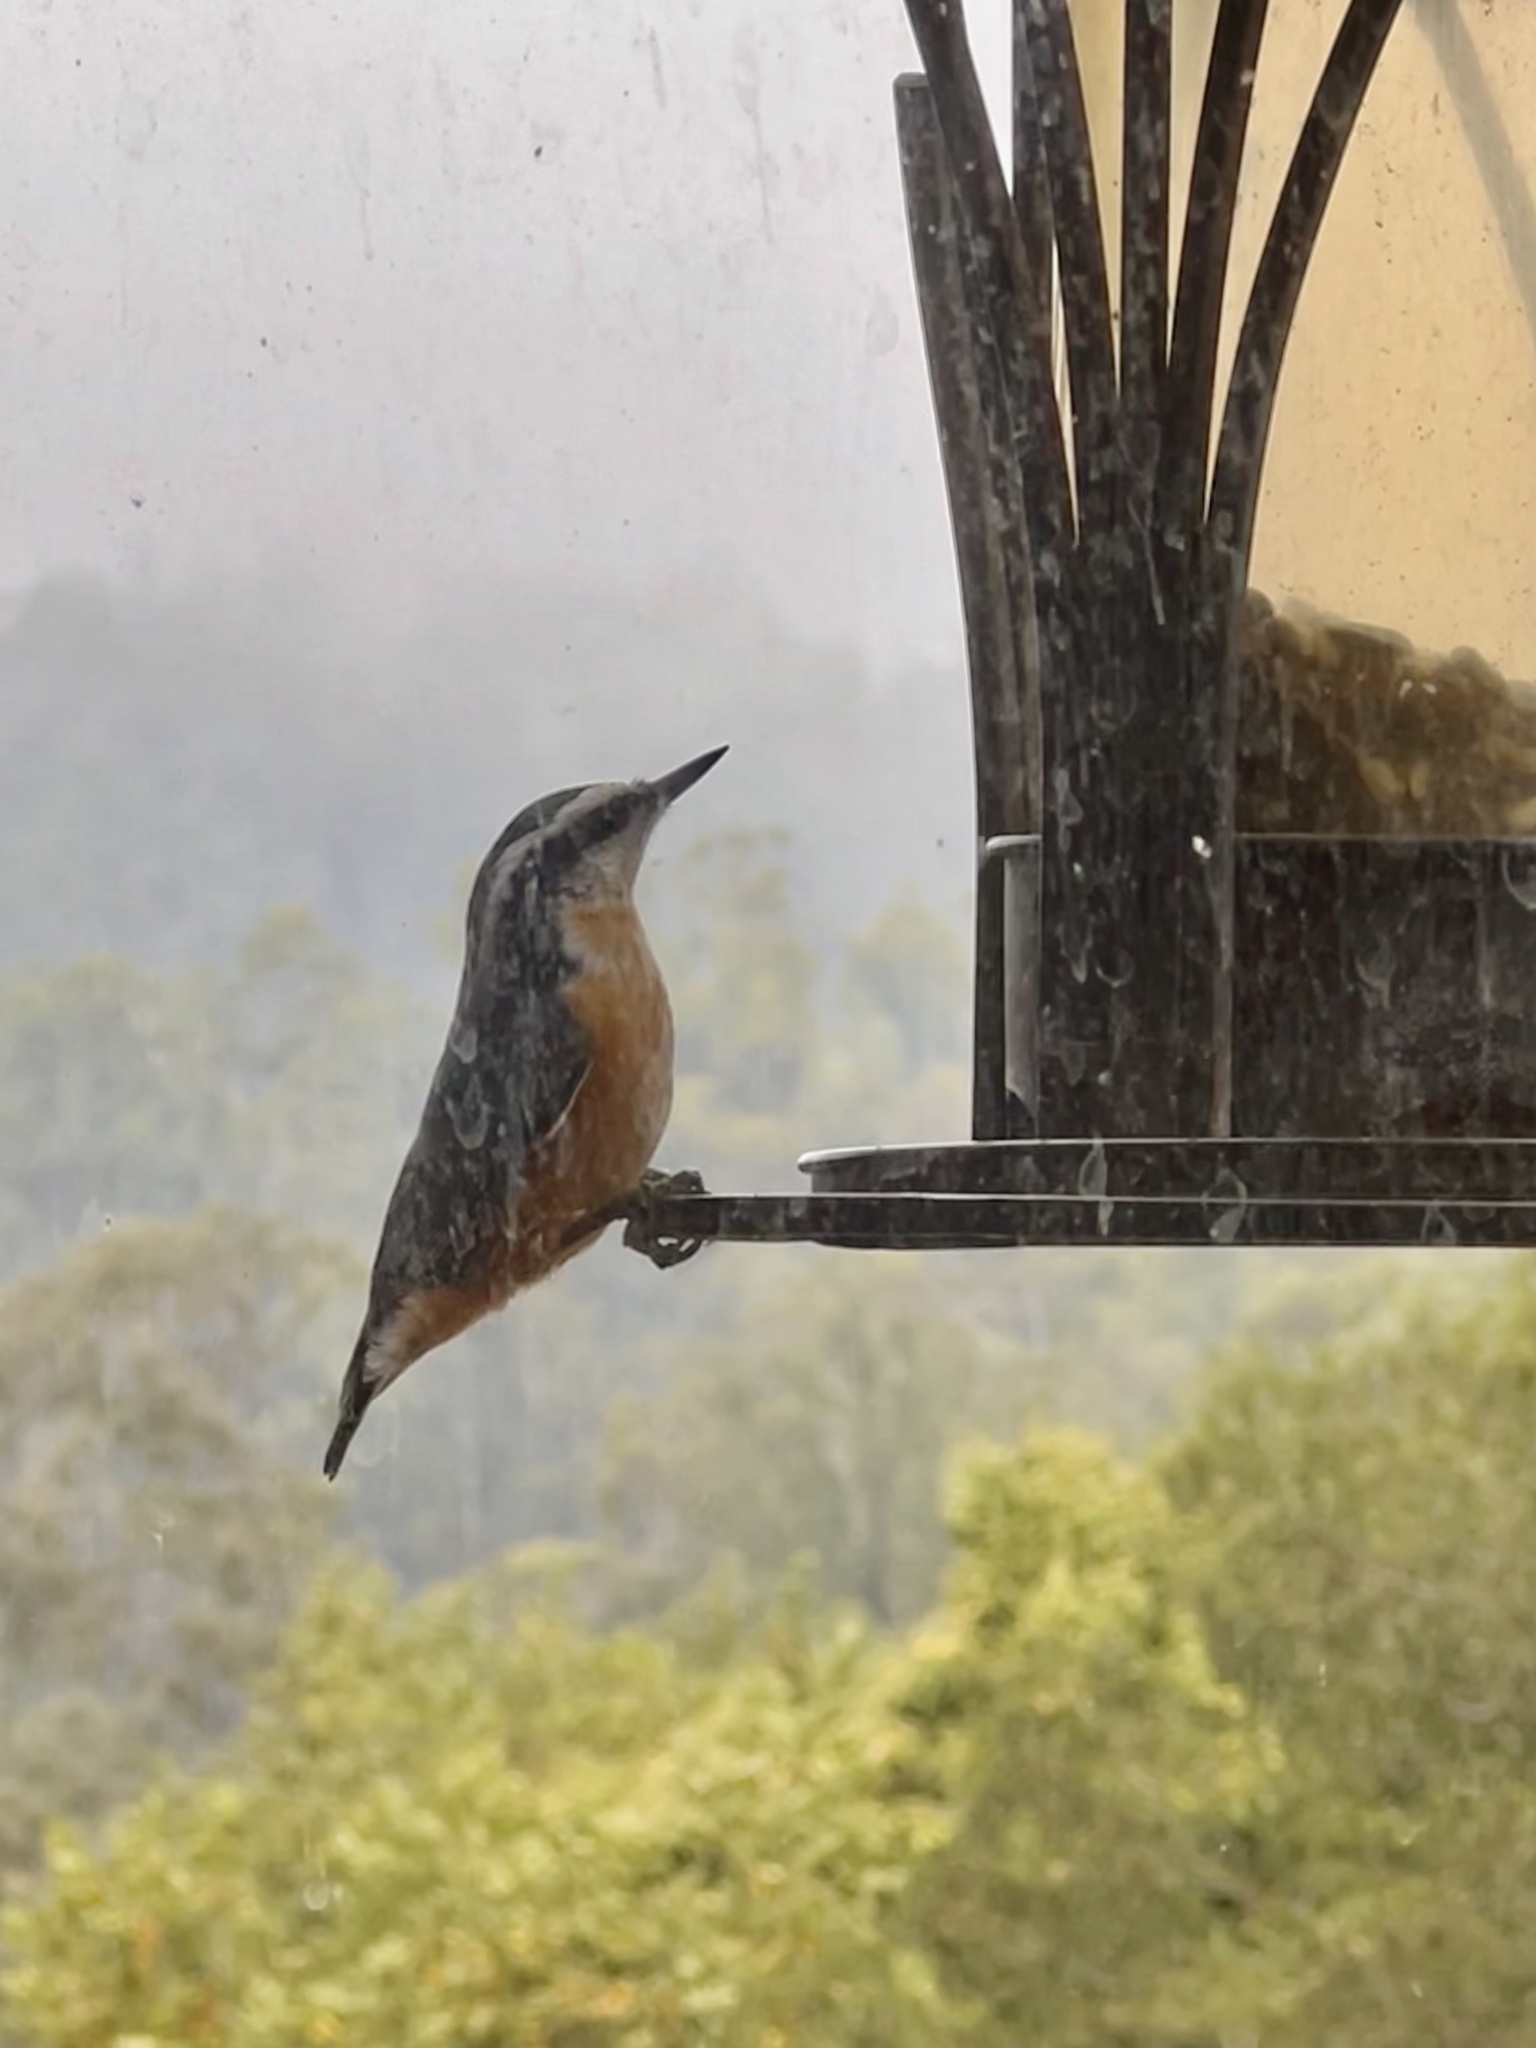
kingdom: Animalia
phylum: Chordata
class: Aves
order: Passeriformes
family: Sittidae
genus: Sitta
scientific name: Sitta canadensis
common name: Red-breasted nuthatch
